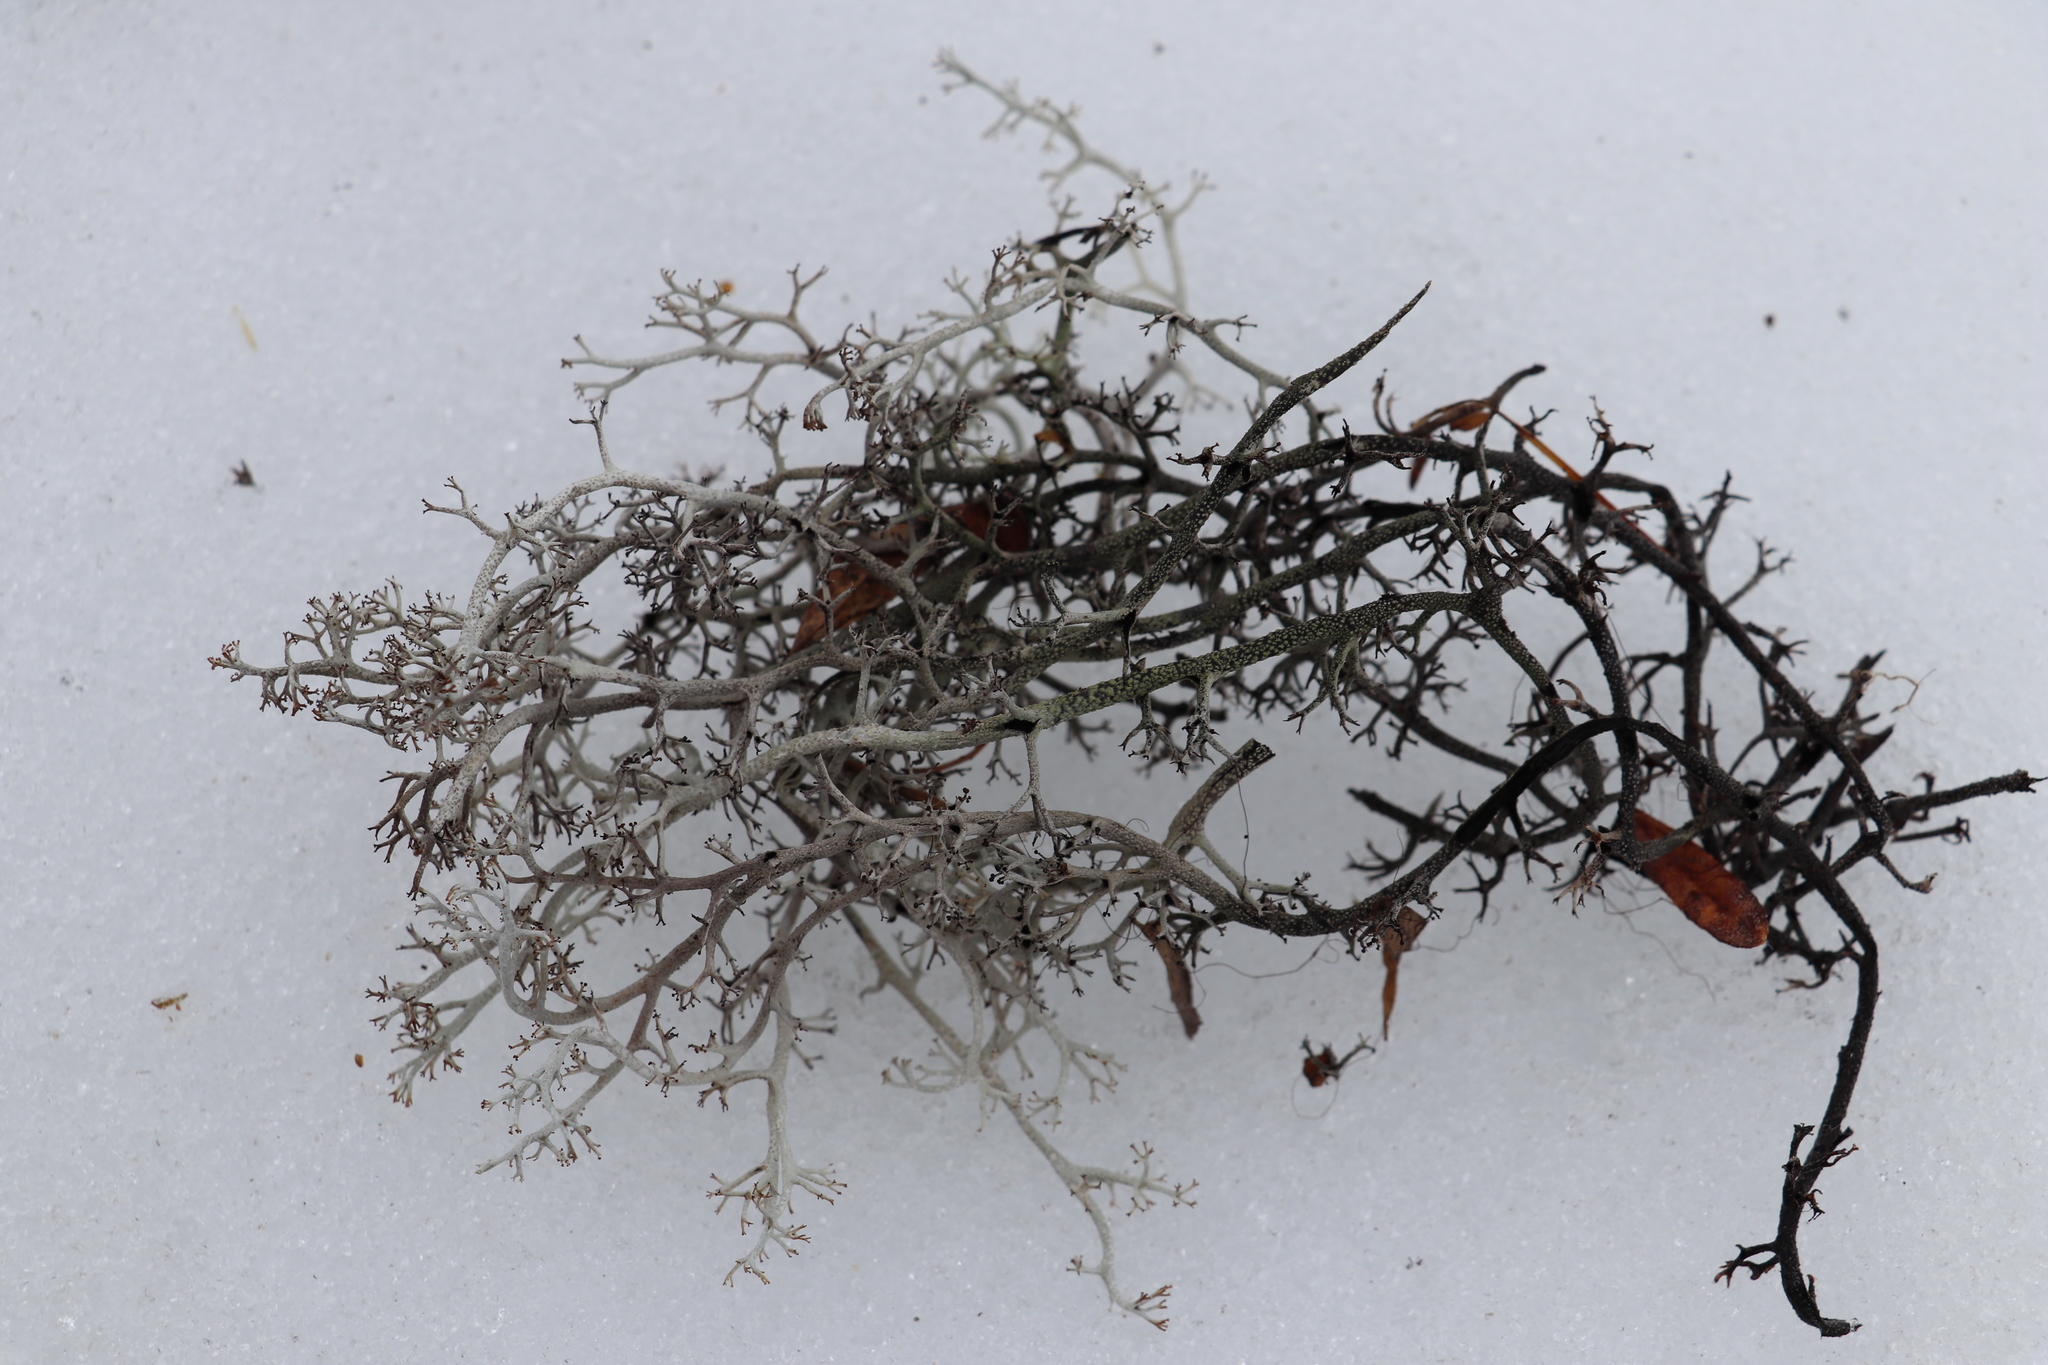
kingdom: Fungi
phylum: Ascomycota
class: Lecanoromycetes
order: Lecanorales
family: Cladoniaceae
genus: Cladonia
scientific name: Cladonia rangiferina
